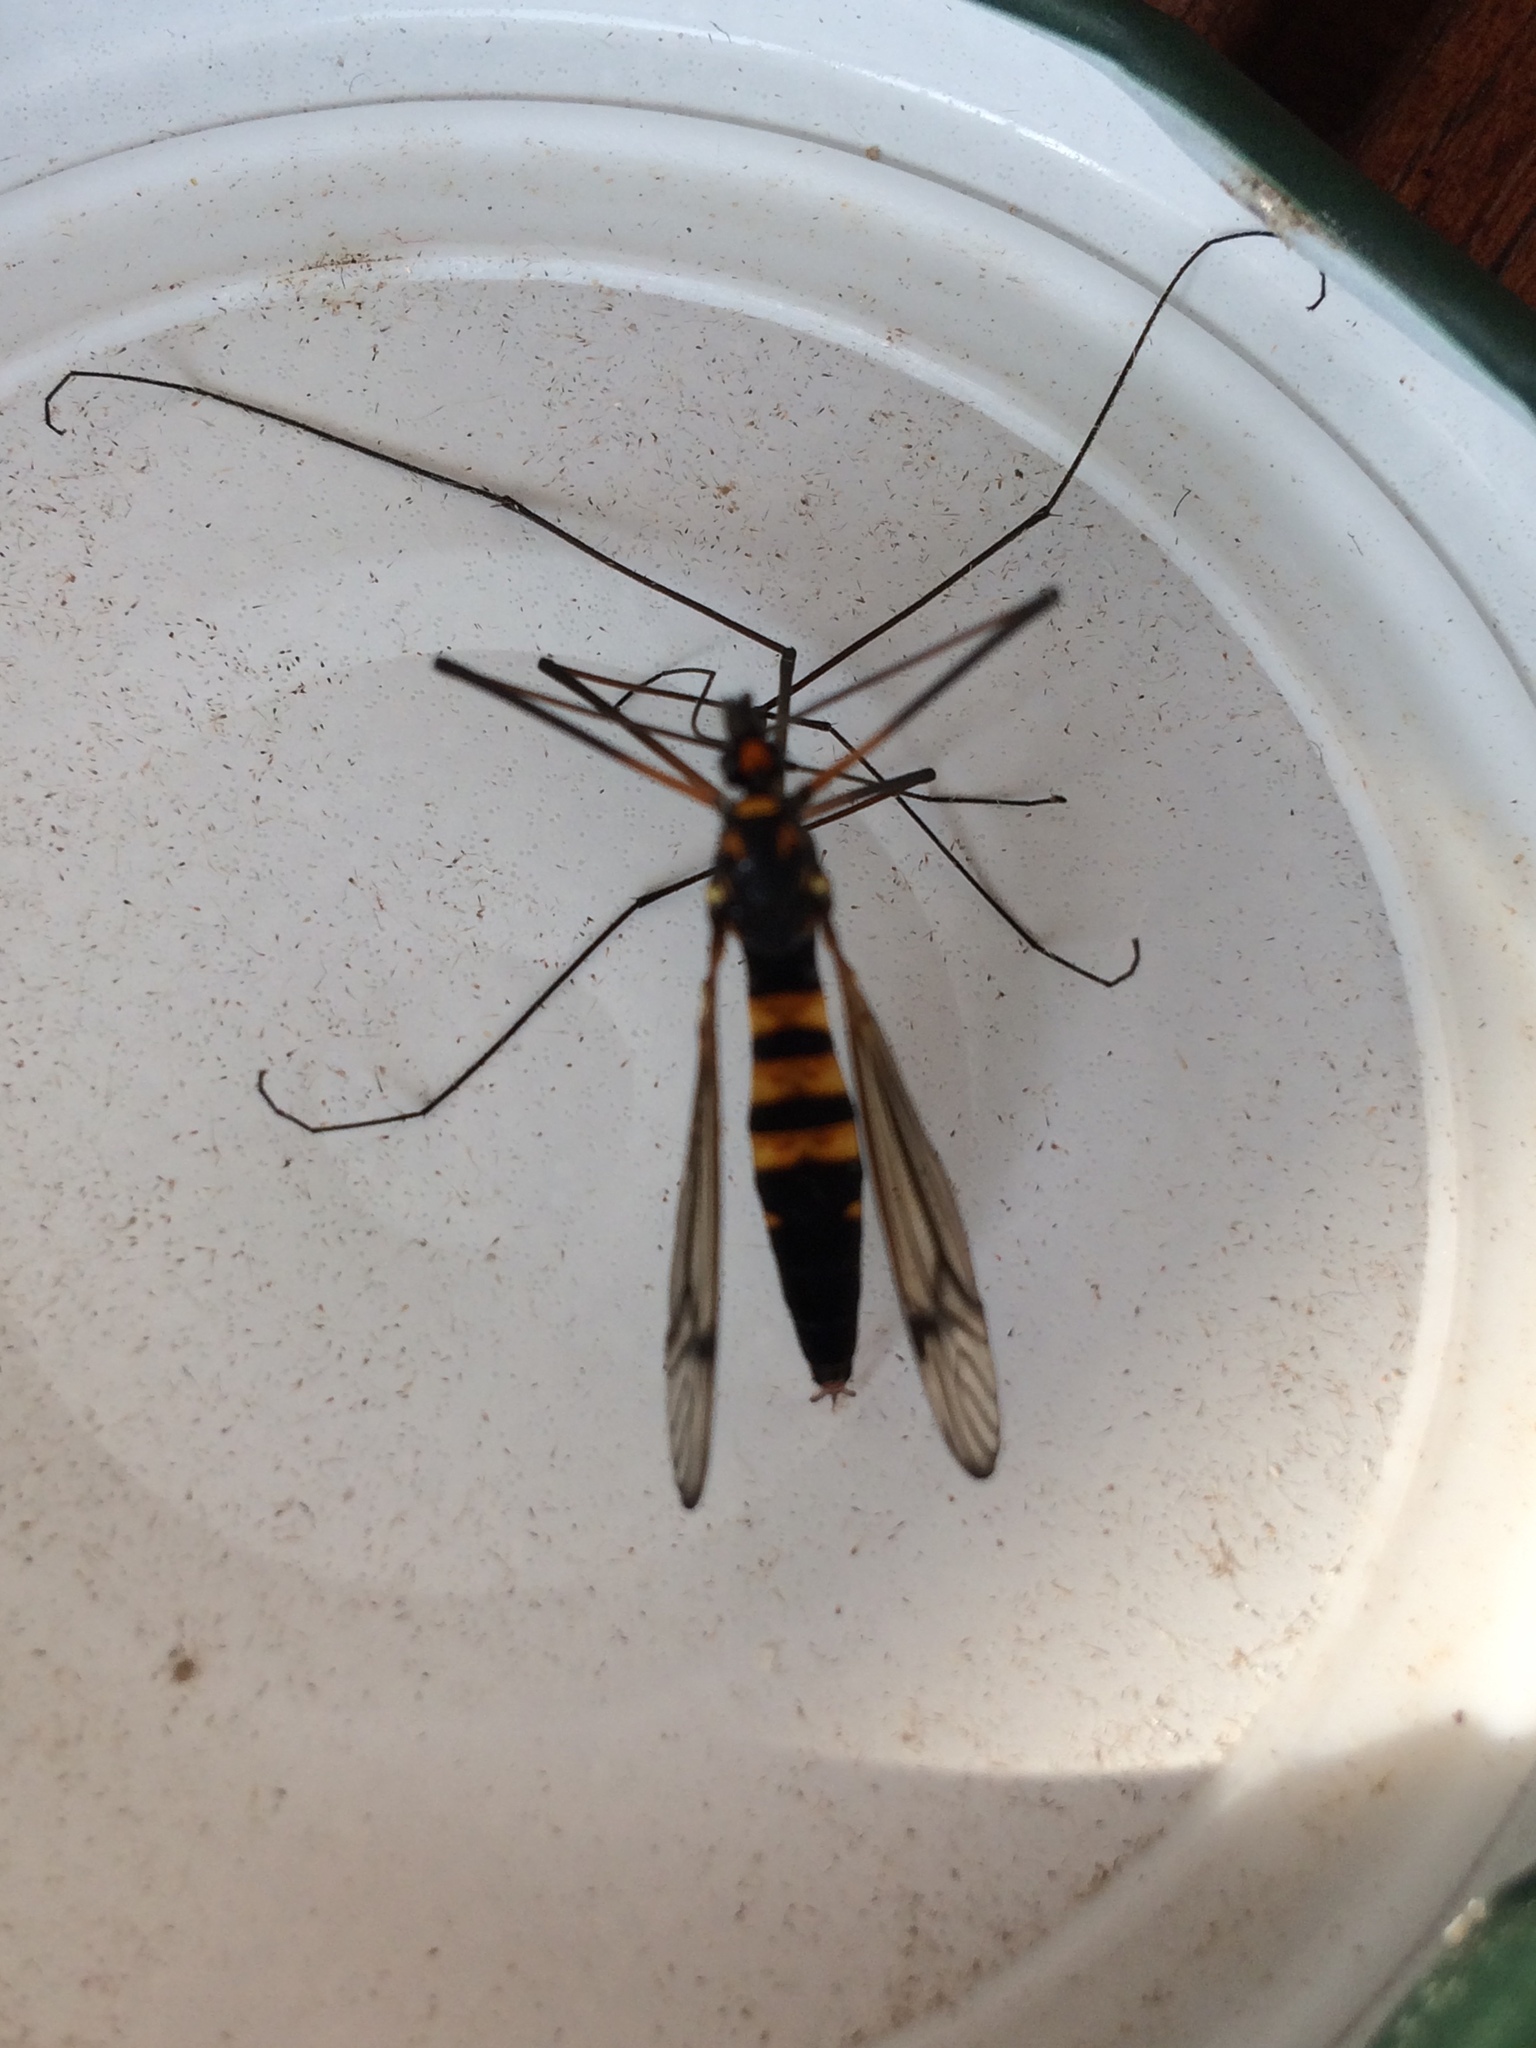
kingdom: Animalia
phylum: Arthropoda
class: Insecta
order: Diptera
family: Tipulidae
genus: Nephrotoma
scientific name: Nephrotoma crocata
